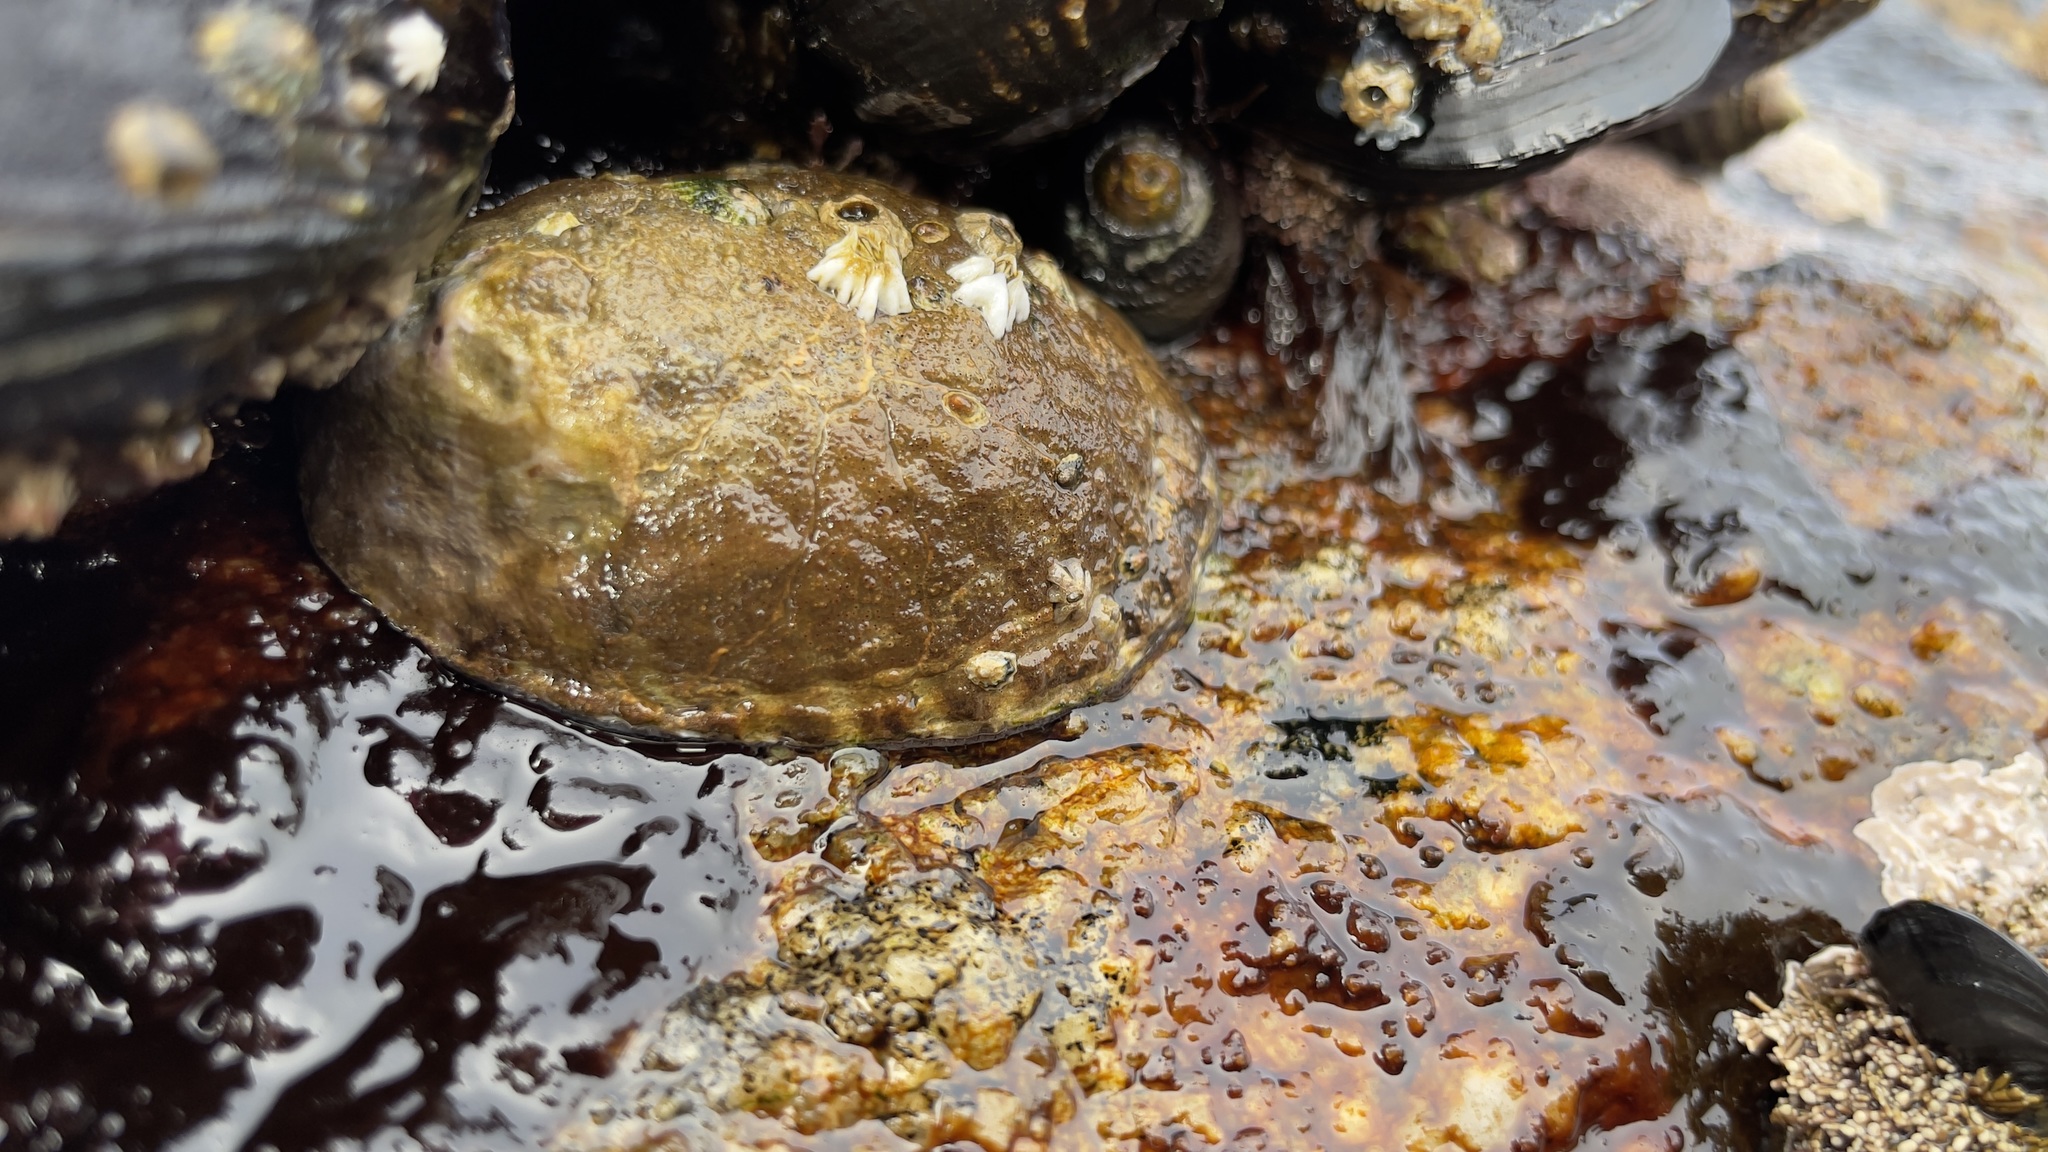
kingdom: Animalia
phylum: Mollusca
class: Gastropoda
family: Lottiidae
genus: Lottia
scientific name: Lottia gigantea
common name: Owl limpet
